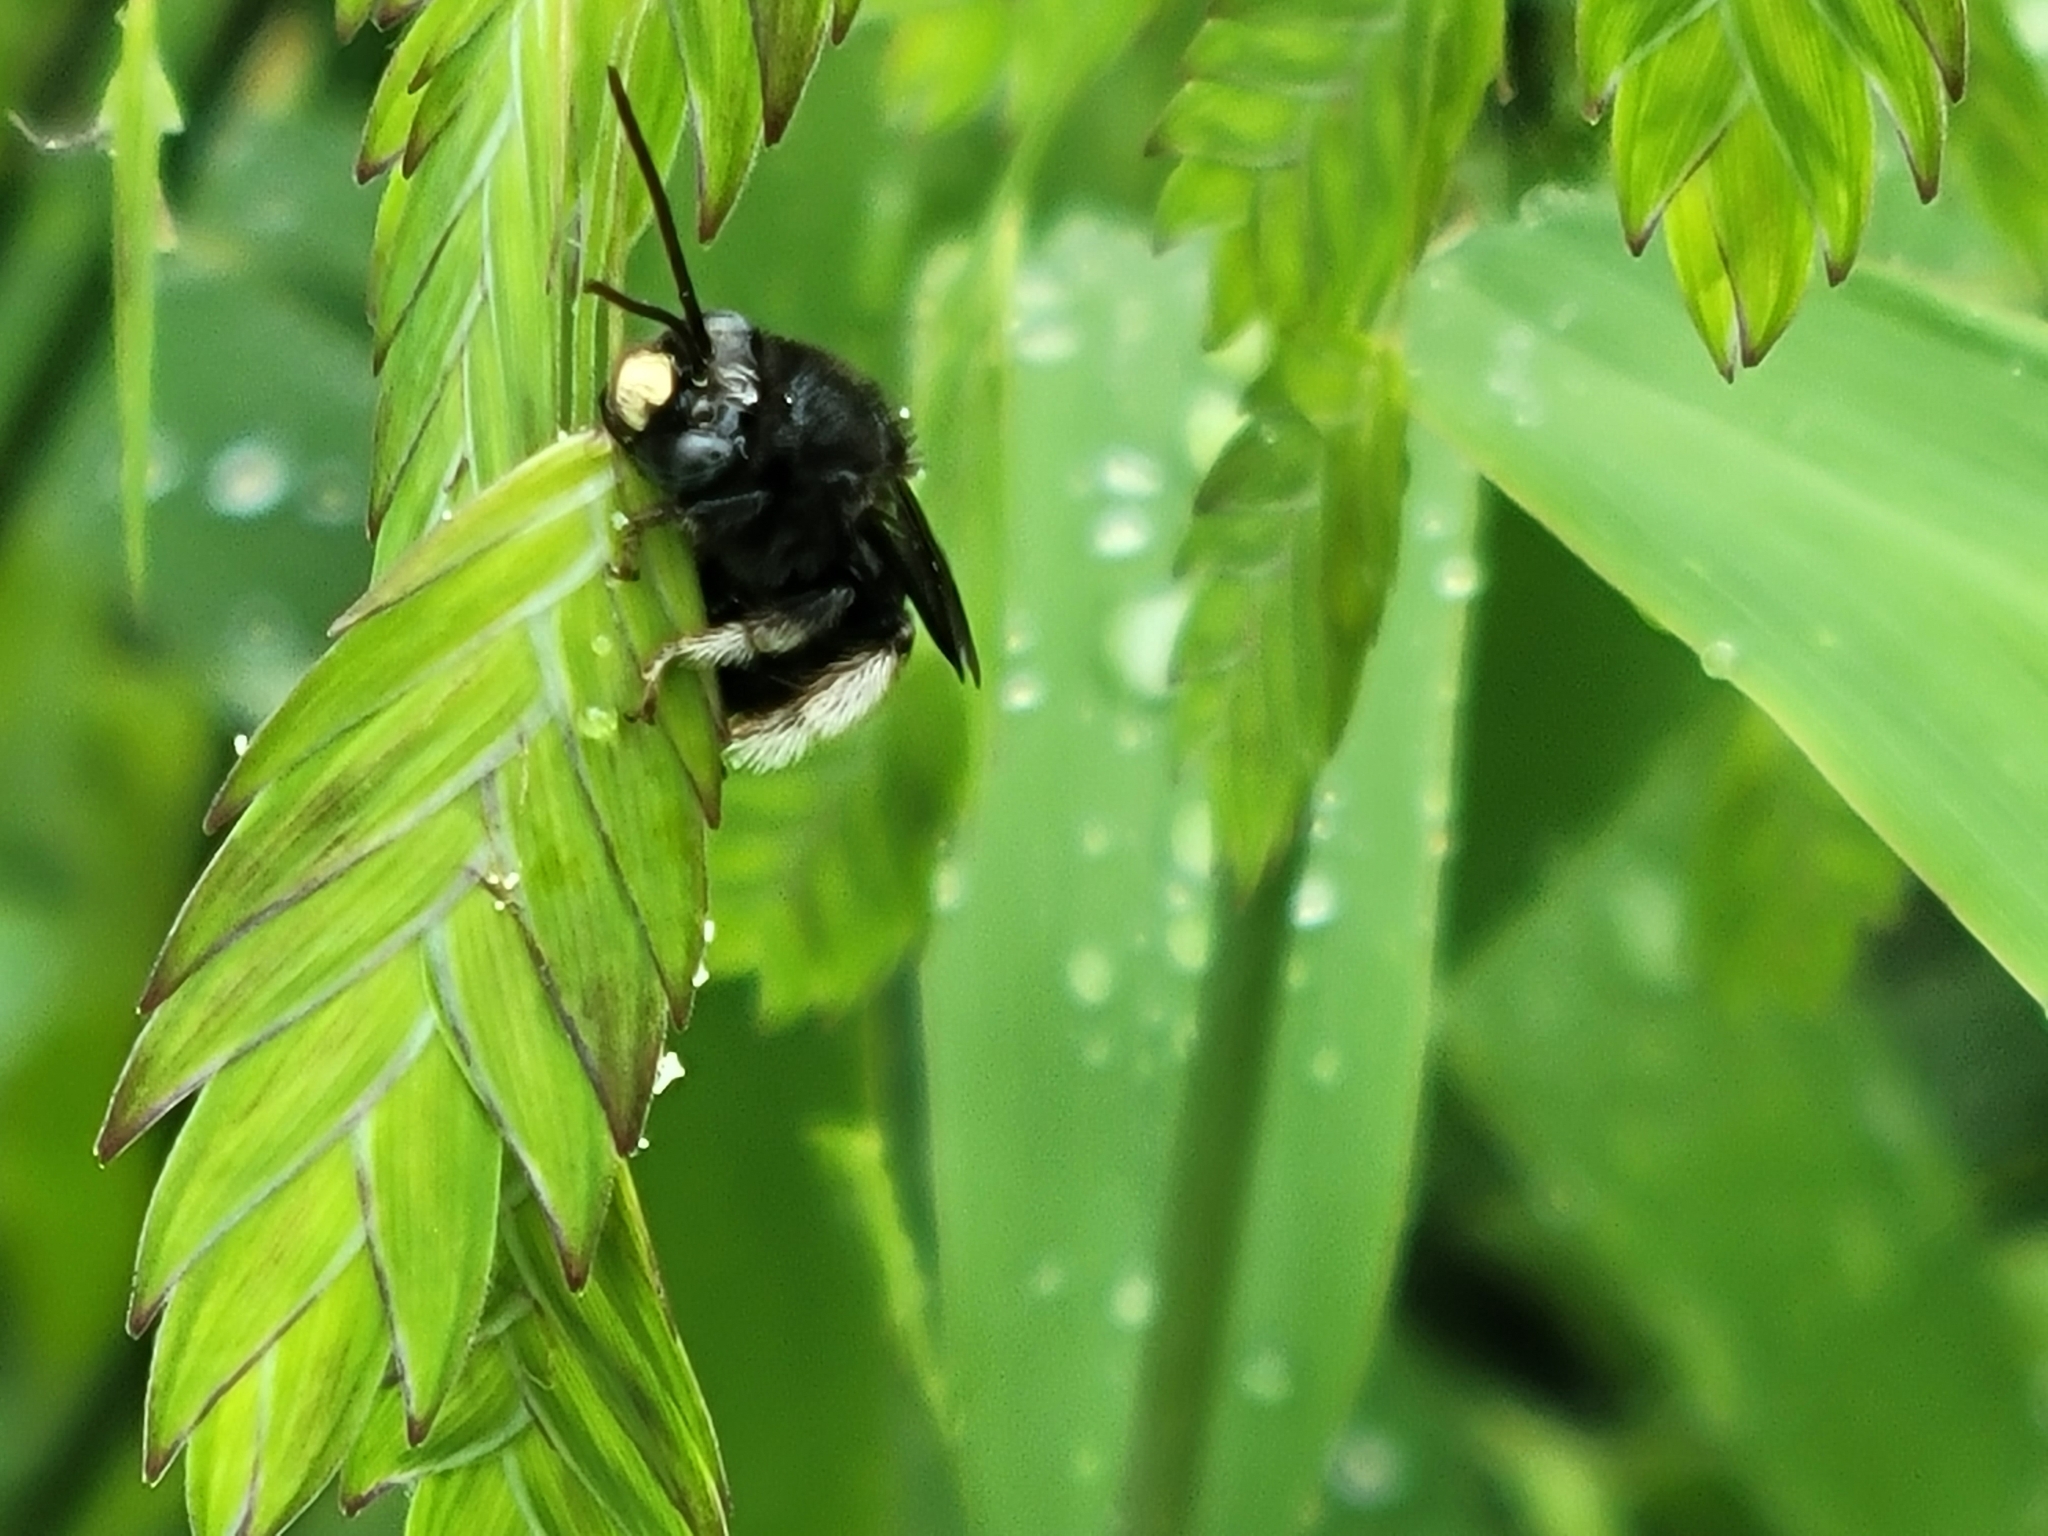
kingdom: Animalia
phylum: Arthropoda
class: Insecta
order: Hymenoptera
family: Apidae
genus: Melissodes
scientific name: Melissodes bimaculatus
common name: Two-spotted long-horned bee
